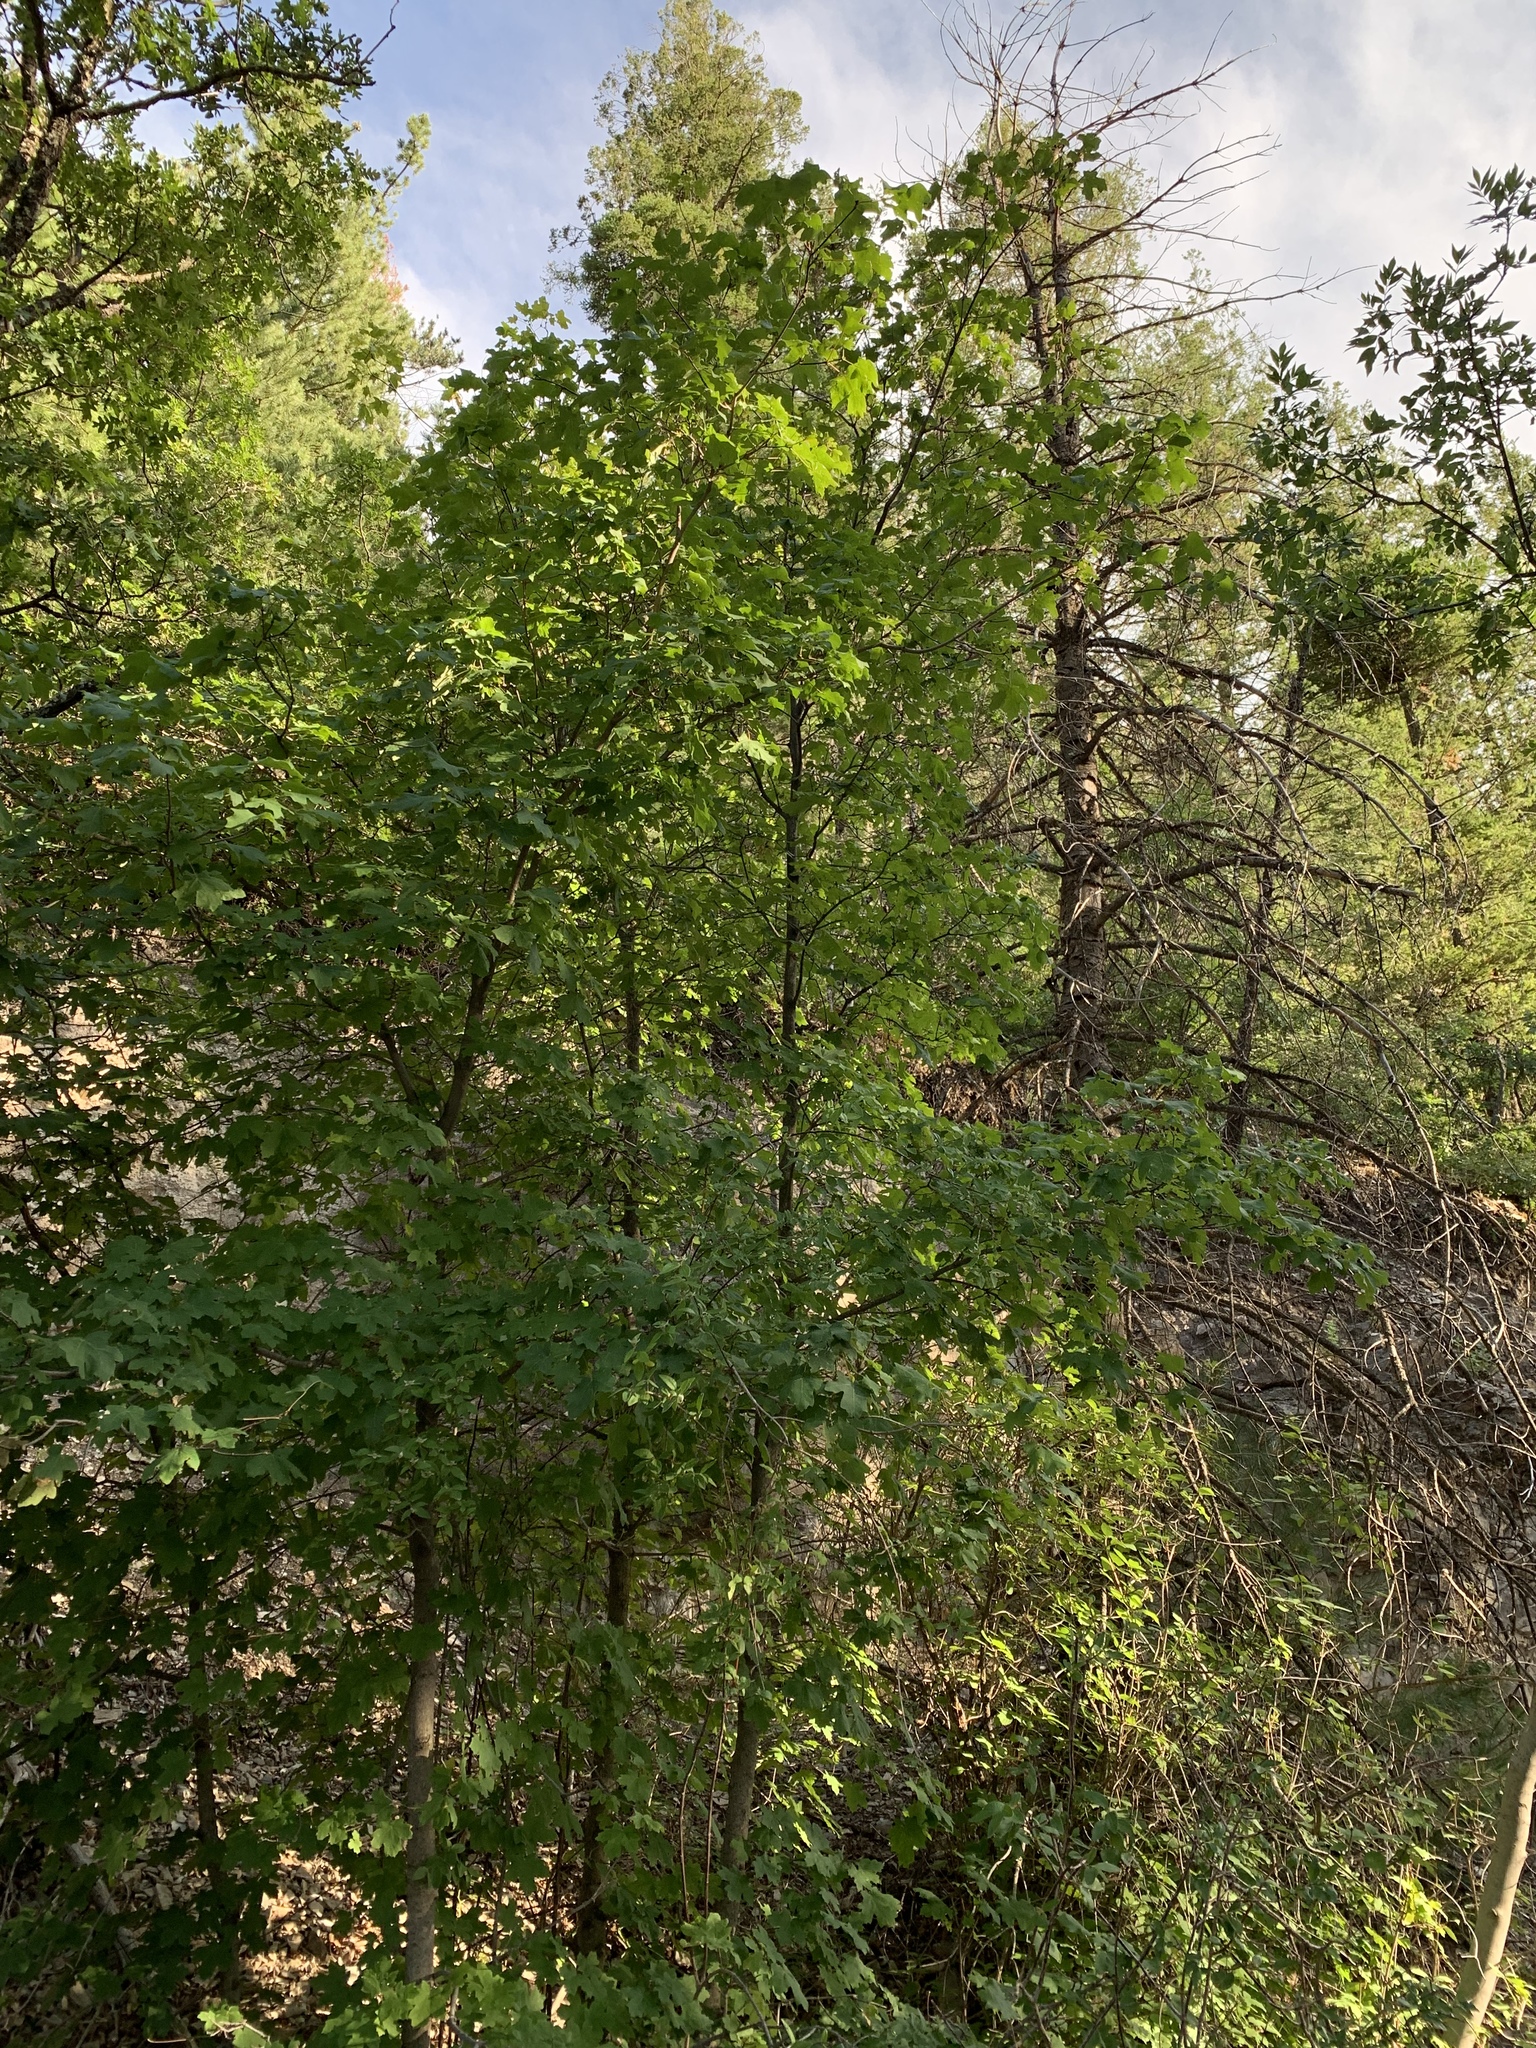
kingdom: Plantae
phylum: Tracheophyta
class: Magnoliopsida
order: Sapindales
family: Sapindaceae
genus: Acer
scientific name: Acer grandidentatum
